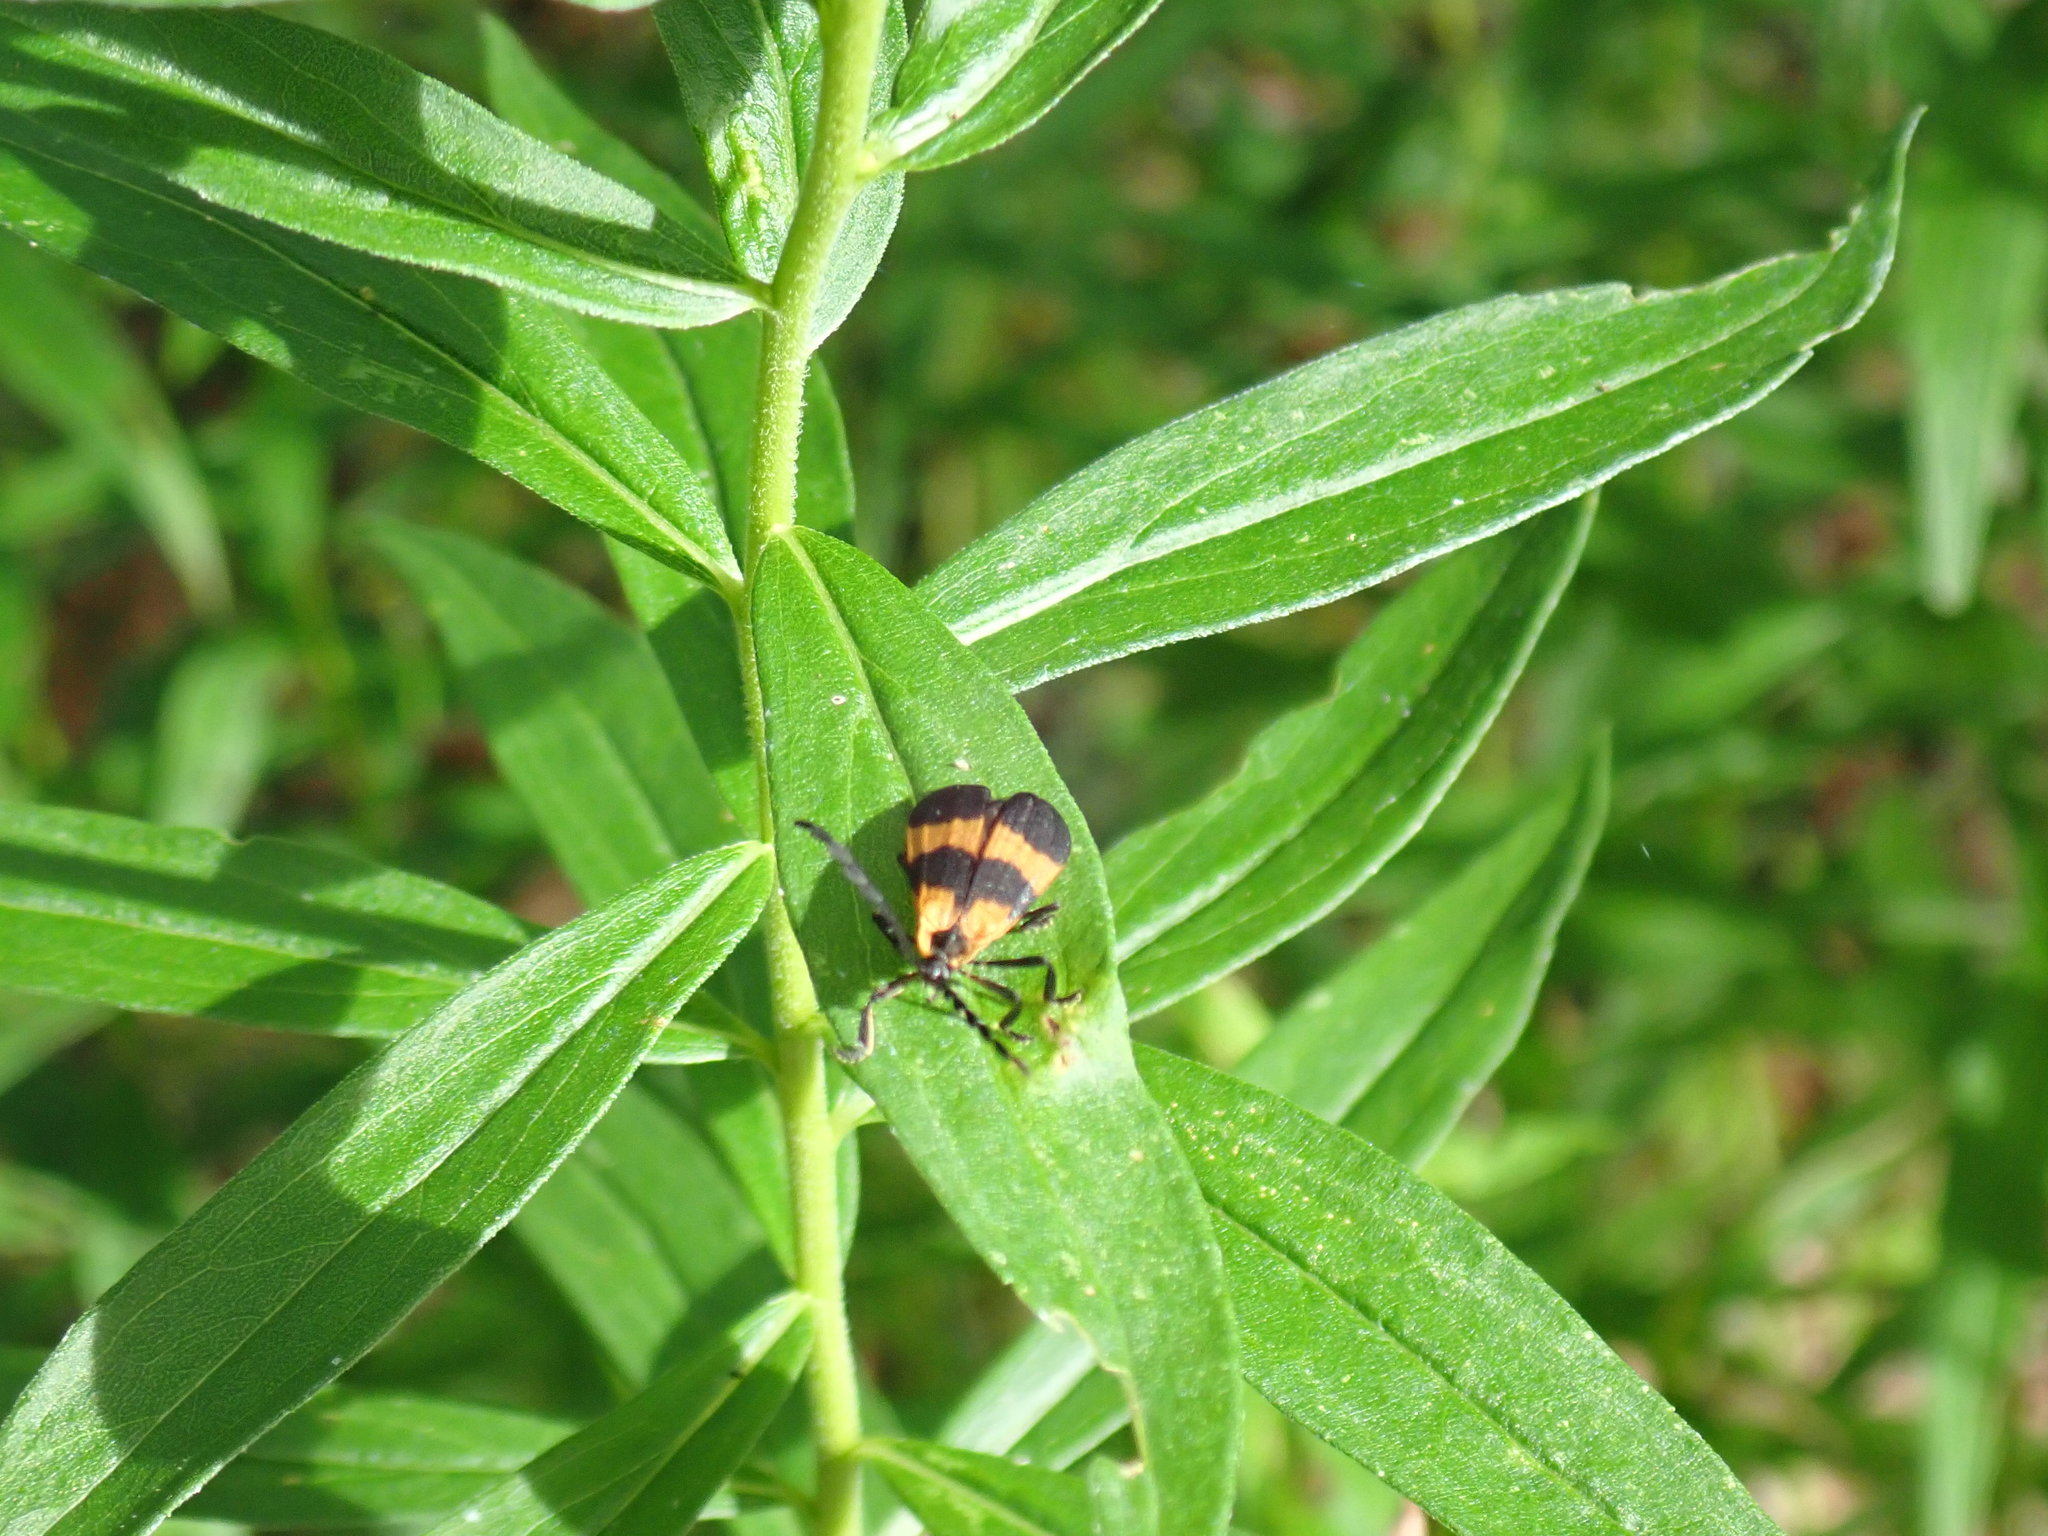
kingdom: Animalia
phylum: Arthropoda
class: Insecta
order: Coleoptera
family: Lycidae
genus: Calopteron
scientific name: Calopteron reticulatum
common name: Banded net-winged beetle
